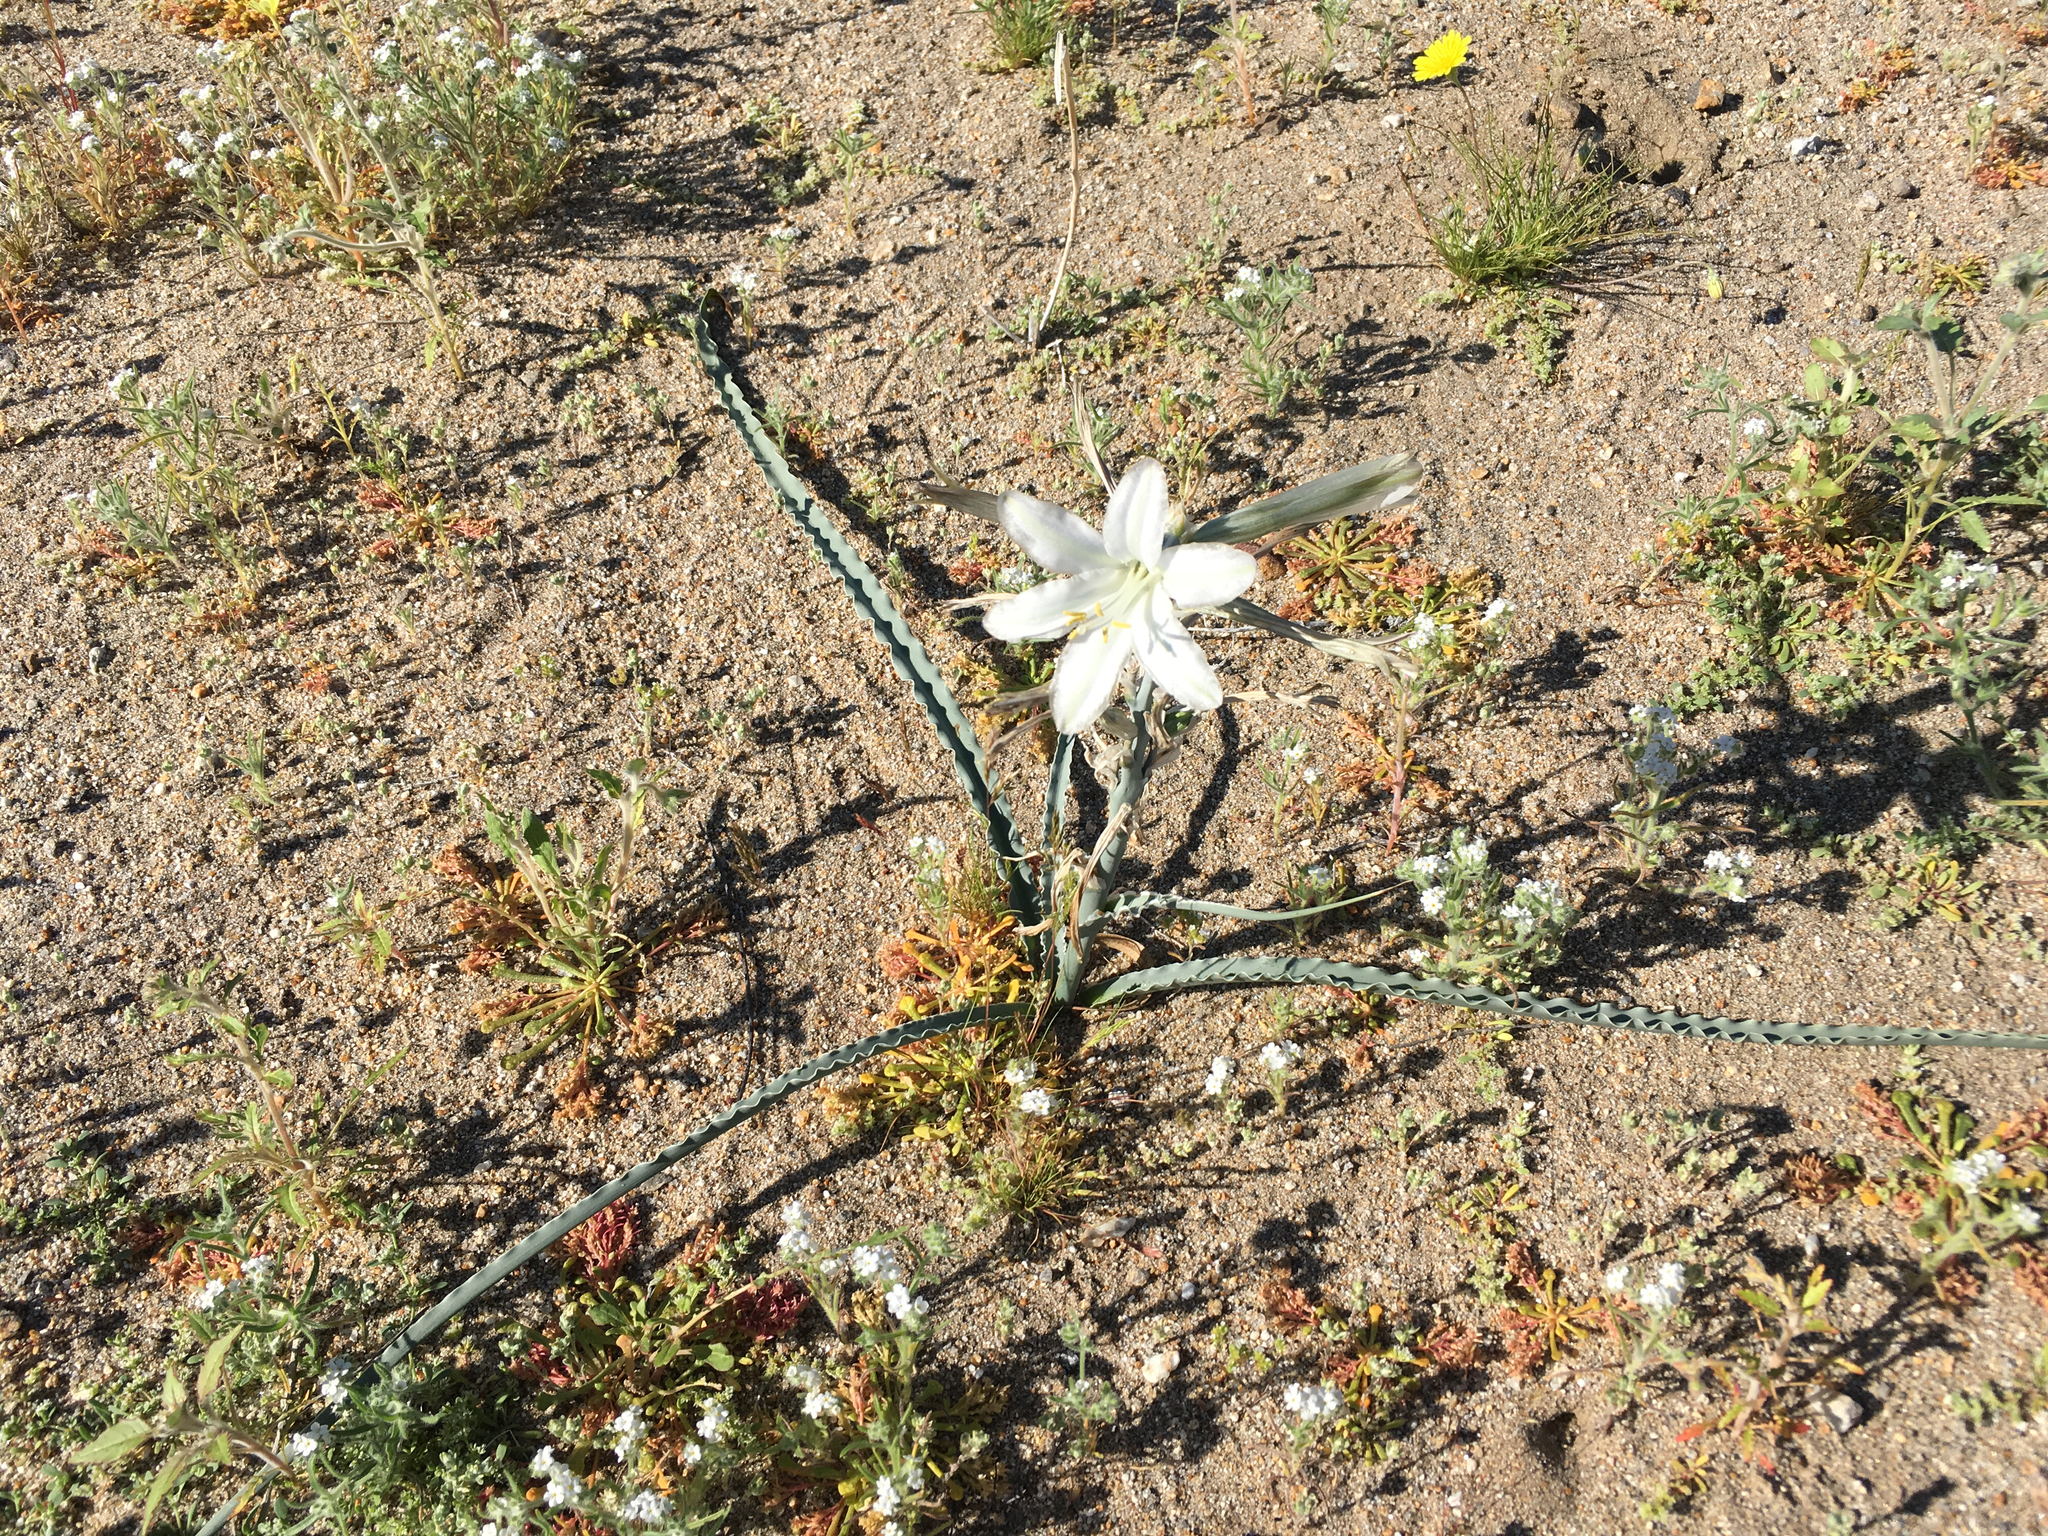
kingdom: Plantae
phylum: Tracheophyta
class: Liliopsida
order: Asparagales
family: Asparagaceae
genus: Hesperocallis
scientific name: Hesperocallis undulata
